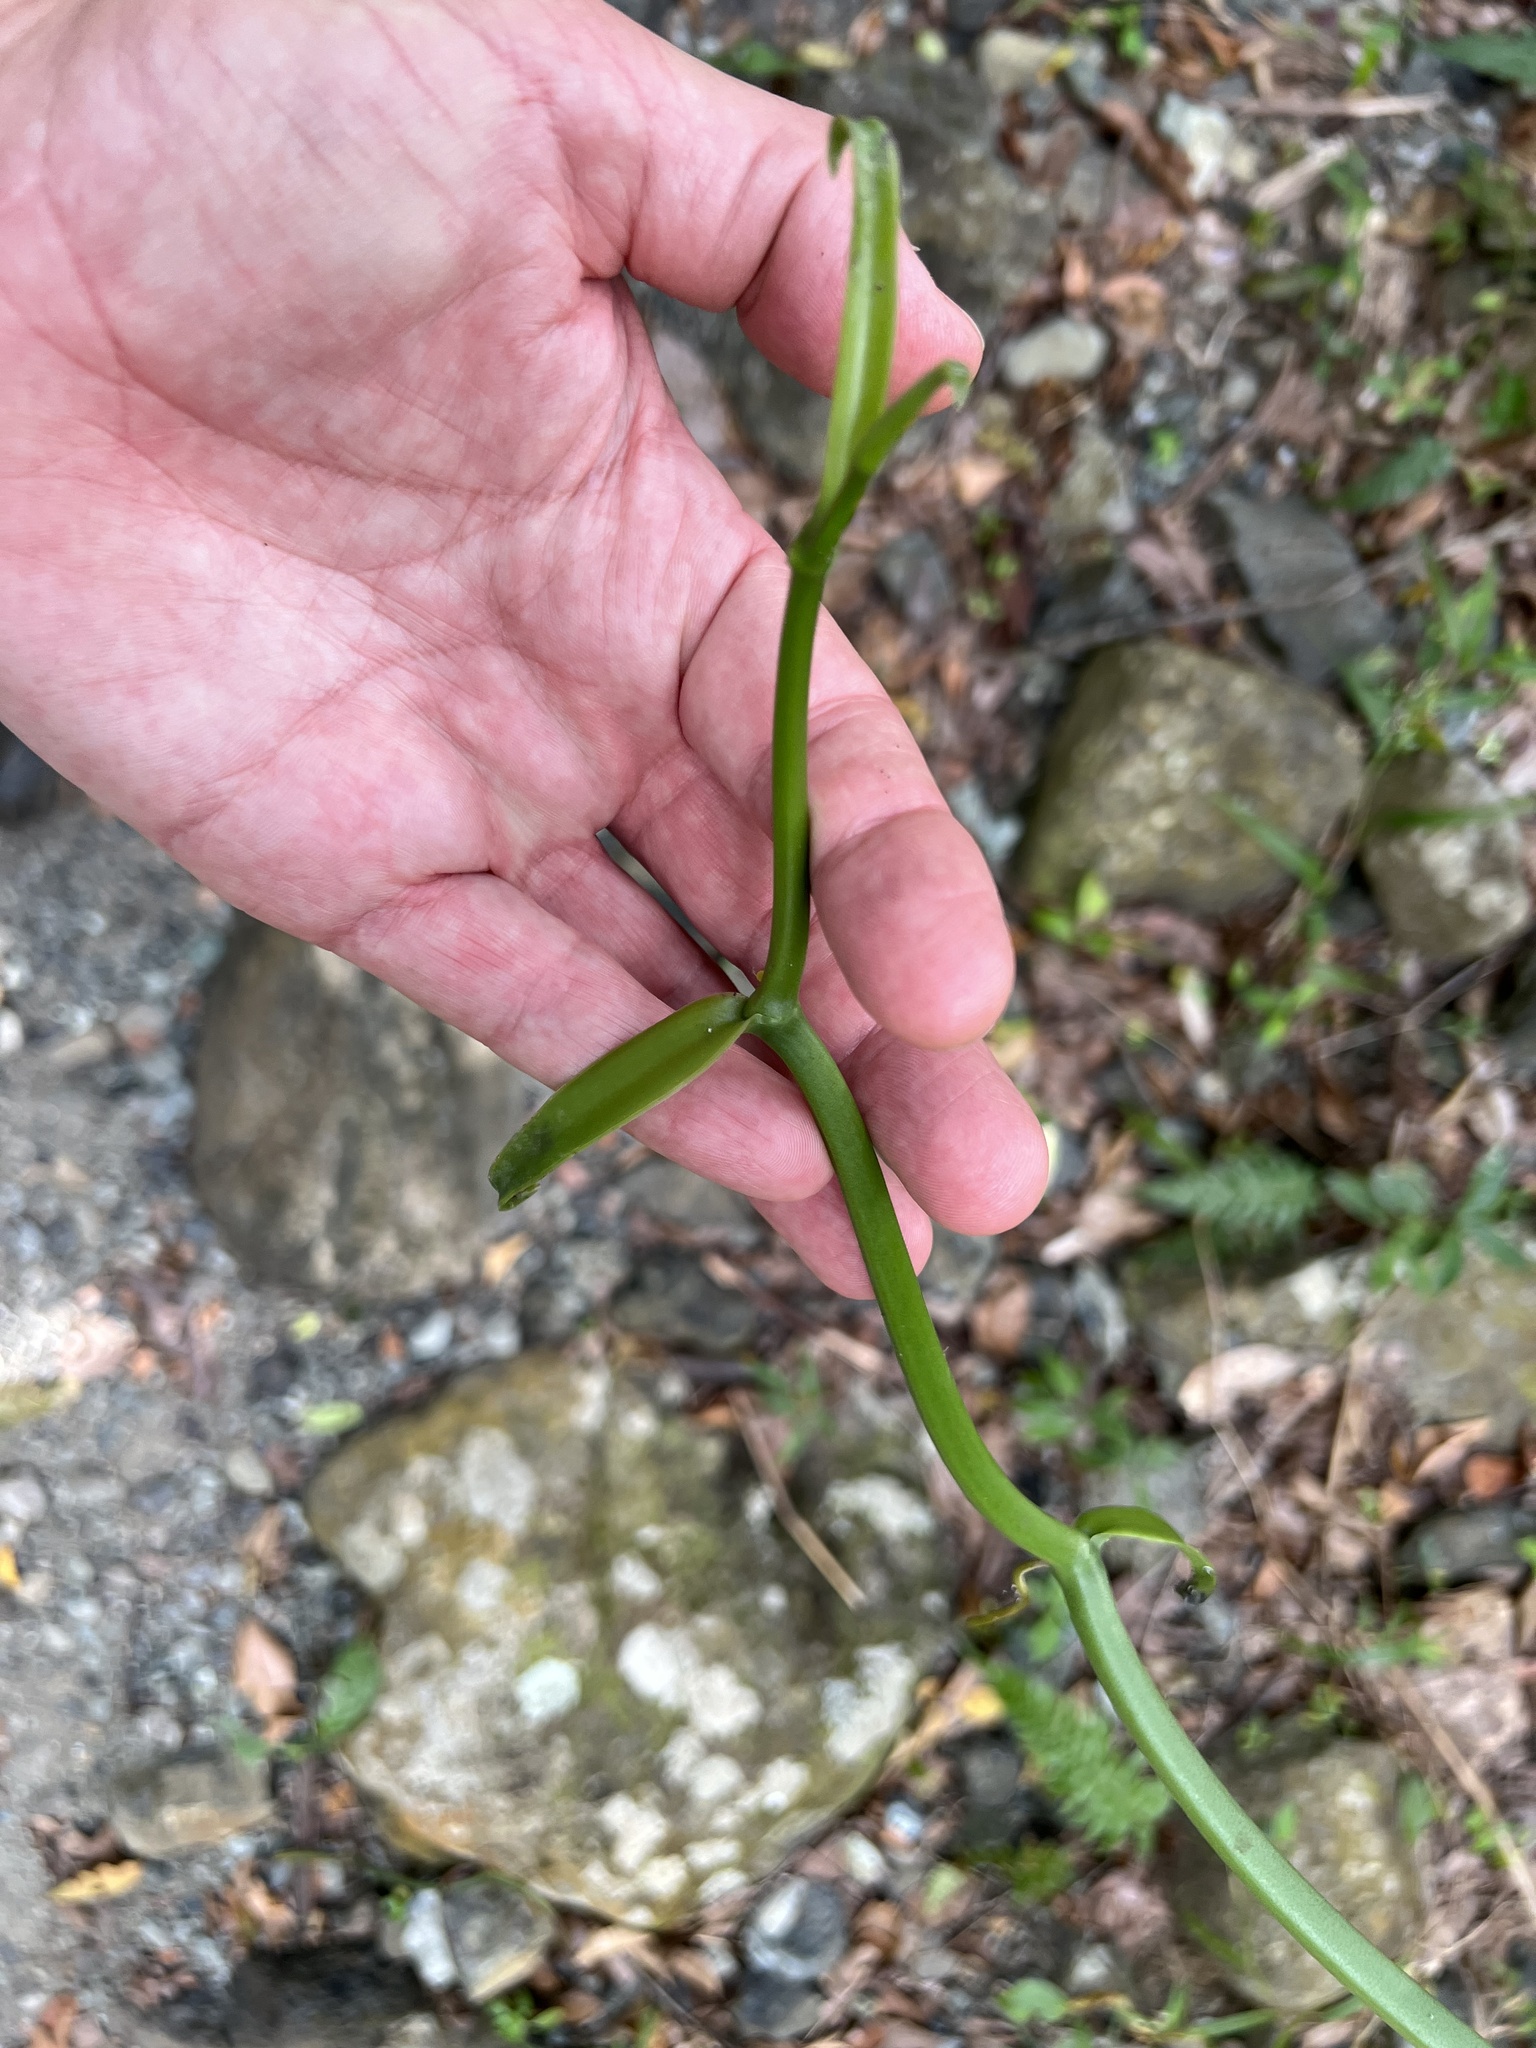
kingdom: Plantae
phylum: Tracheophyta
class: Liliopsida
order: Asparagales
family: Orchidaceae
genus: Vanilla
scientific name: Vanilla poitaei
